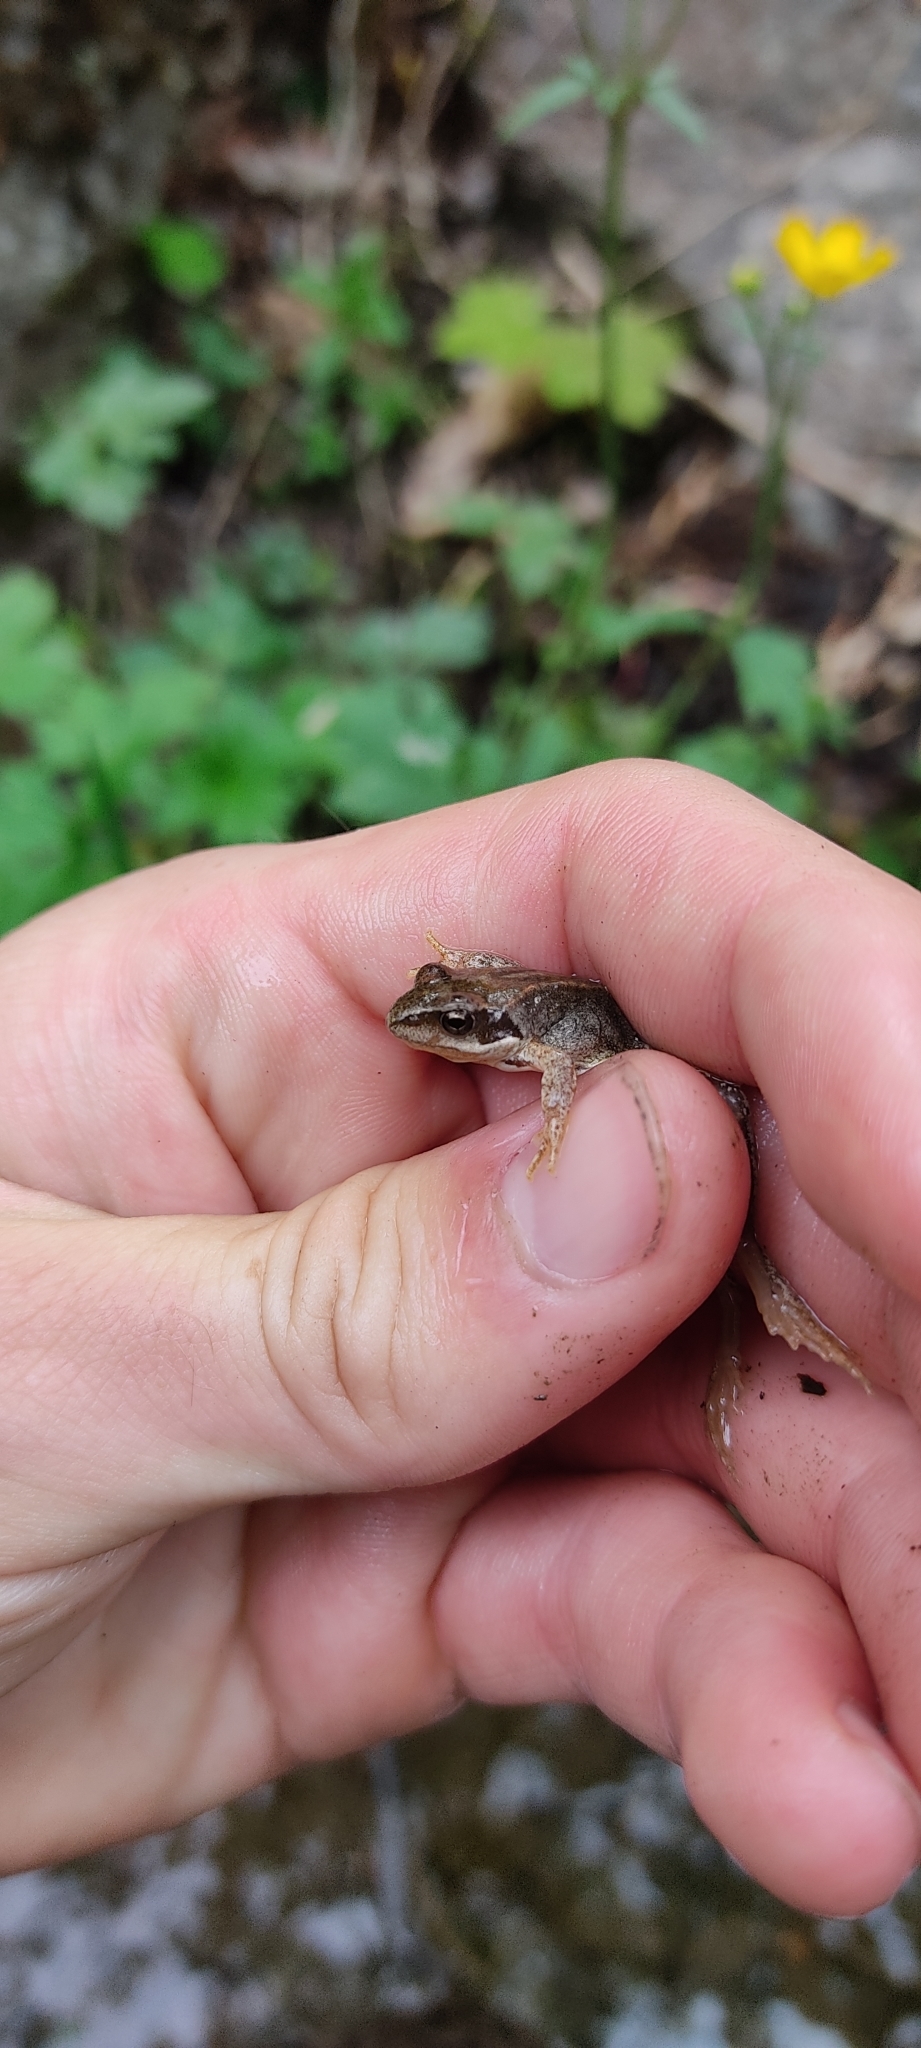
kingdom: Animalia
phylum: Chordata
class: Amphibia
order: Anura
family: Ranidae
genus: Rana
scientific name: Rana temporaria
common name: Common frog
